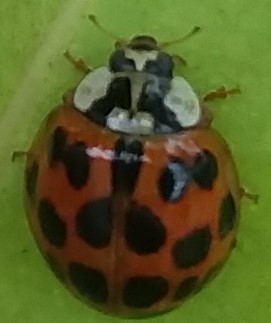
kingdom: Animalia
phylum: Arthropoda
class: Insecta
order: Coleoptera
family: Coccinellidae
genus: Harmonia
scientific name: Harmonia axyridis
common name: Harlequin ladybird
